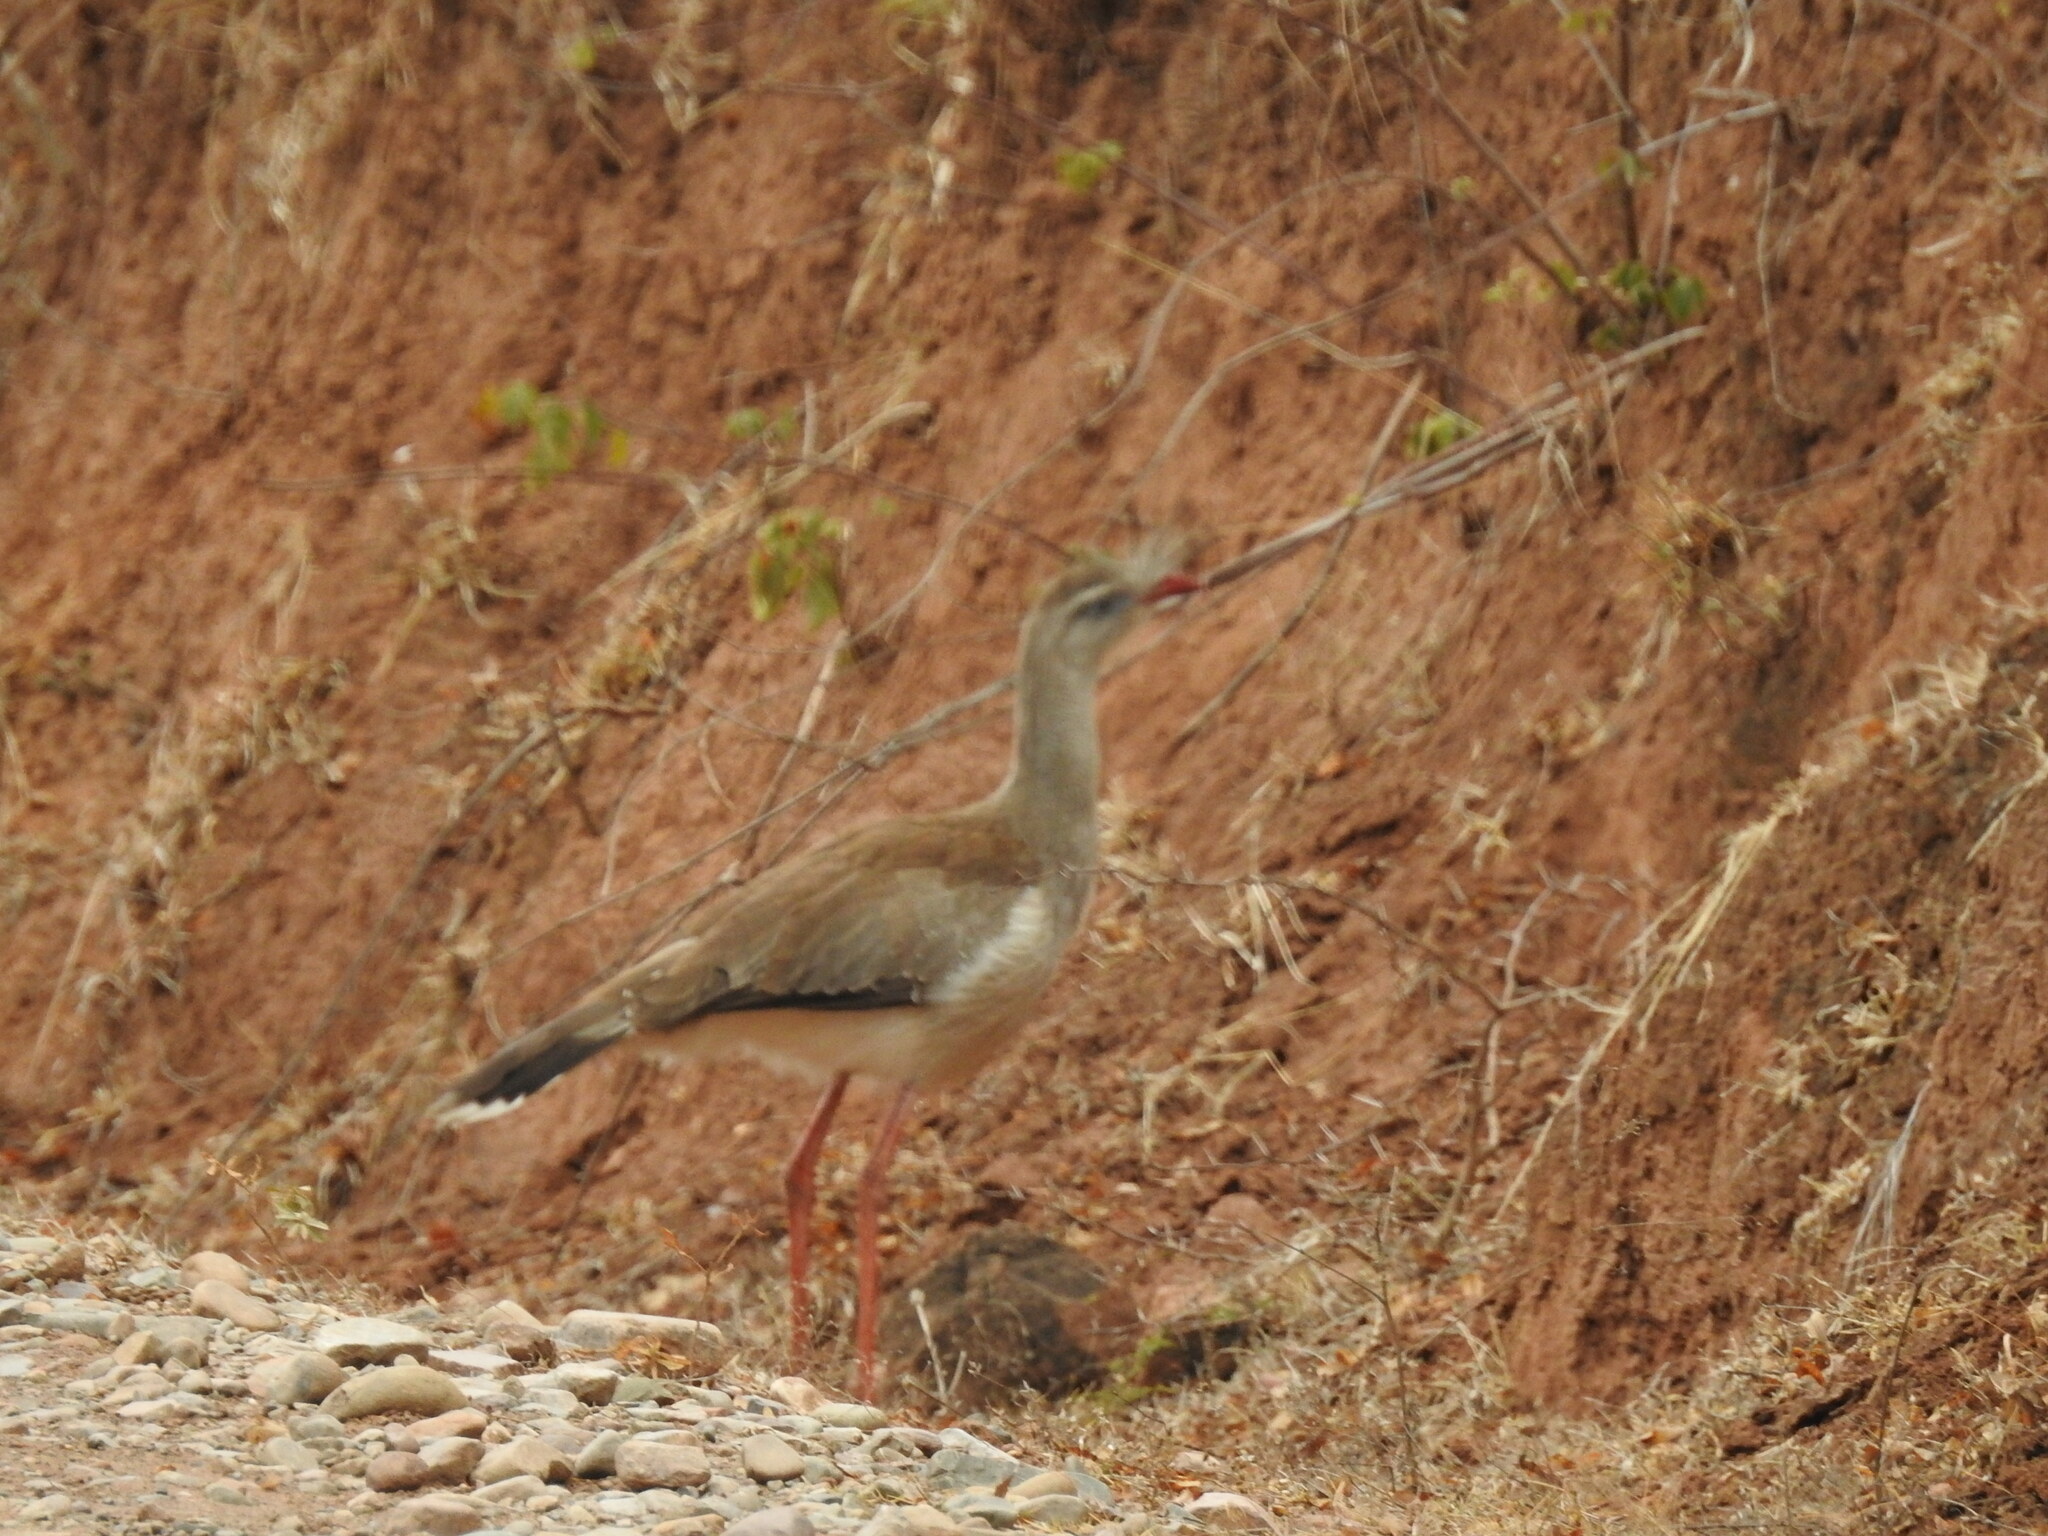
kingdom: Animalia
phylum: Chordata
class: Aves
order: Cariamiformes
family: Cariamidae
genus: Cariama
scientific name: Cariama cristata
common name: Red-legged seriema
